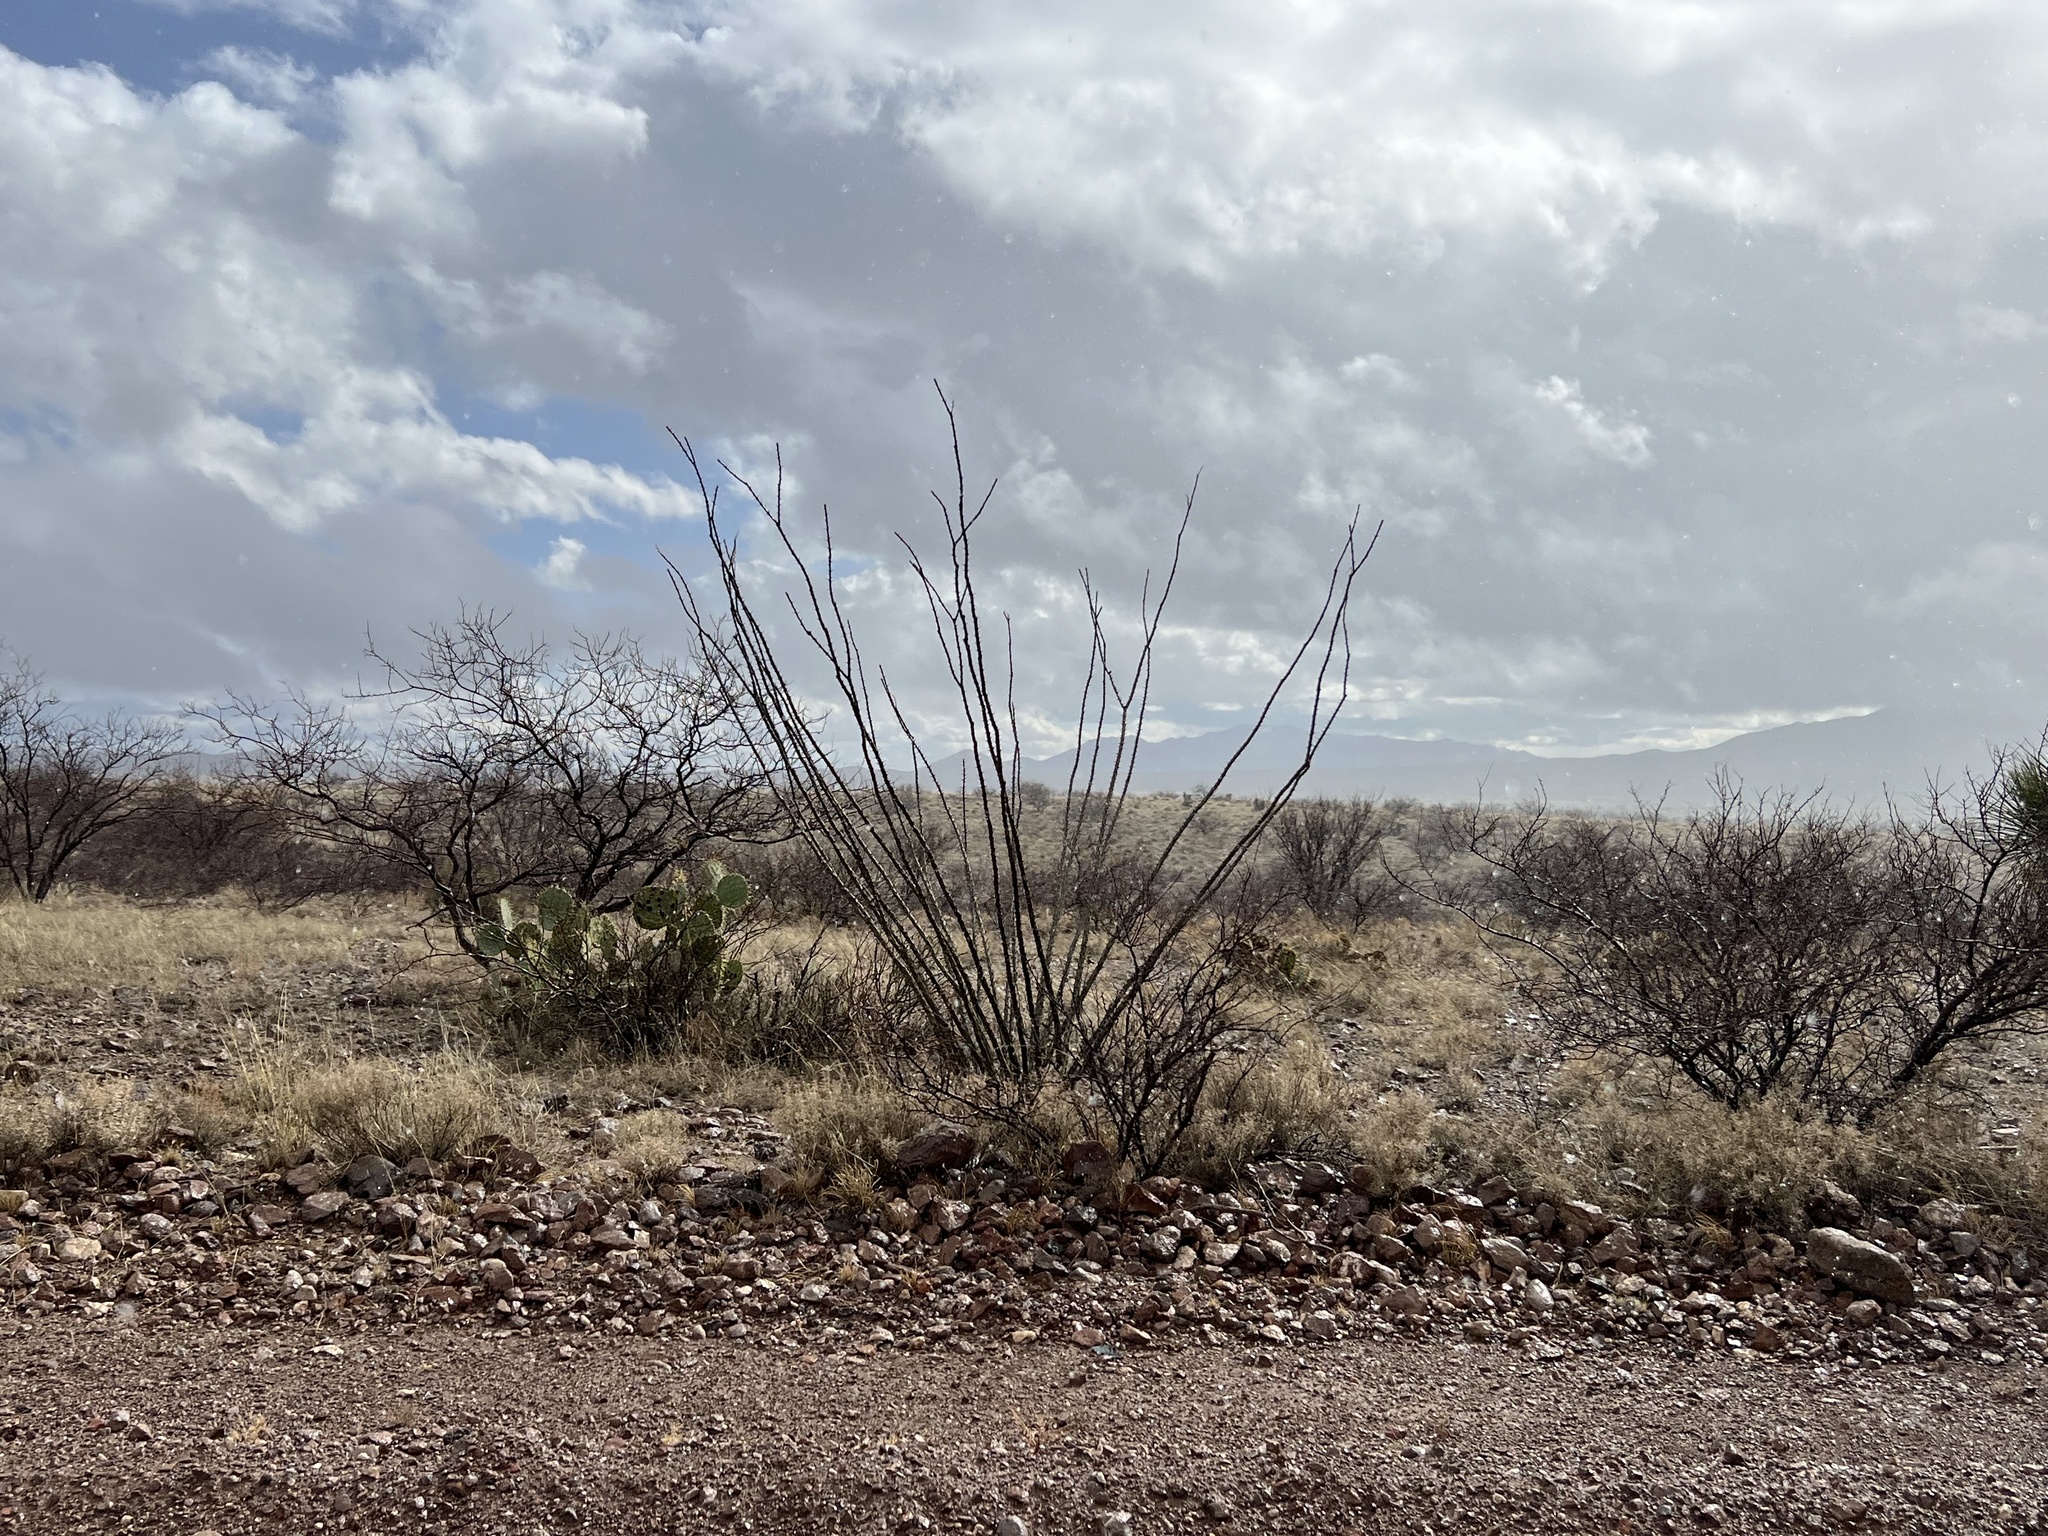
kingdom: Plantae
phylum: Tracheophyta
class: Magnoliopsida
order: Ericales
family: Fouquieriaceae
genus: Fouquieria
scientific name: Fouquieria splendens
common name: Vine-cactus
